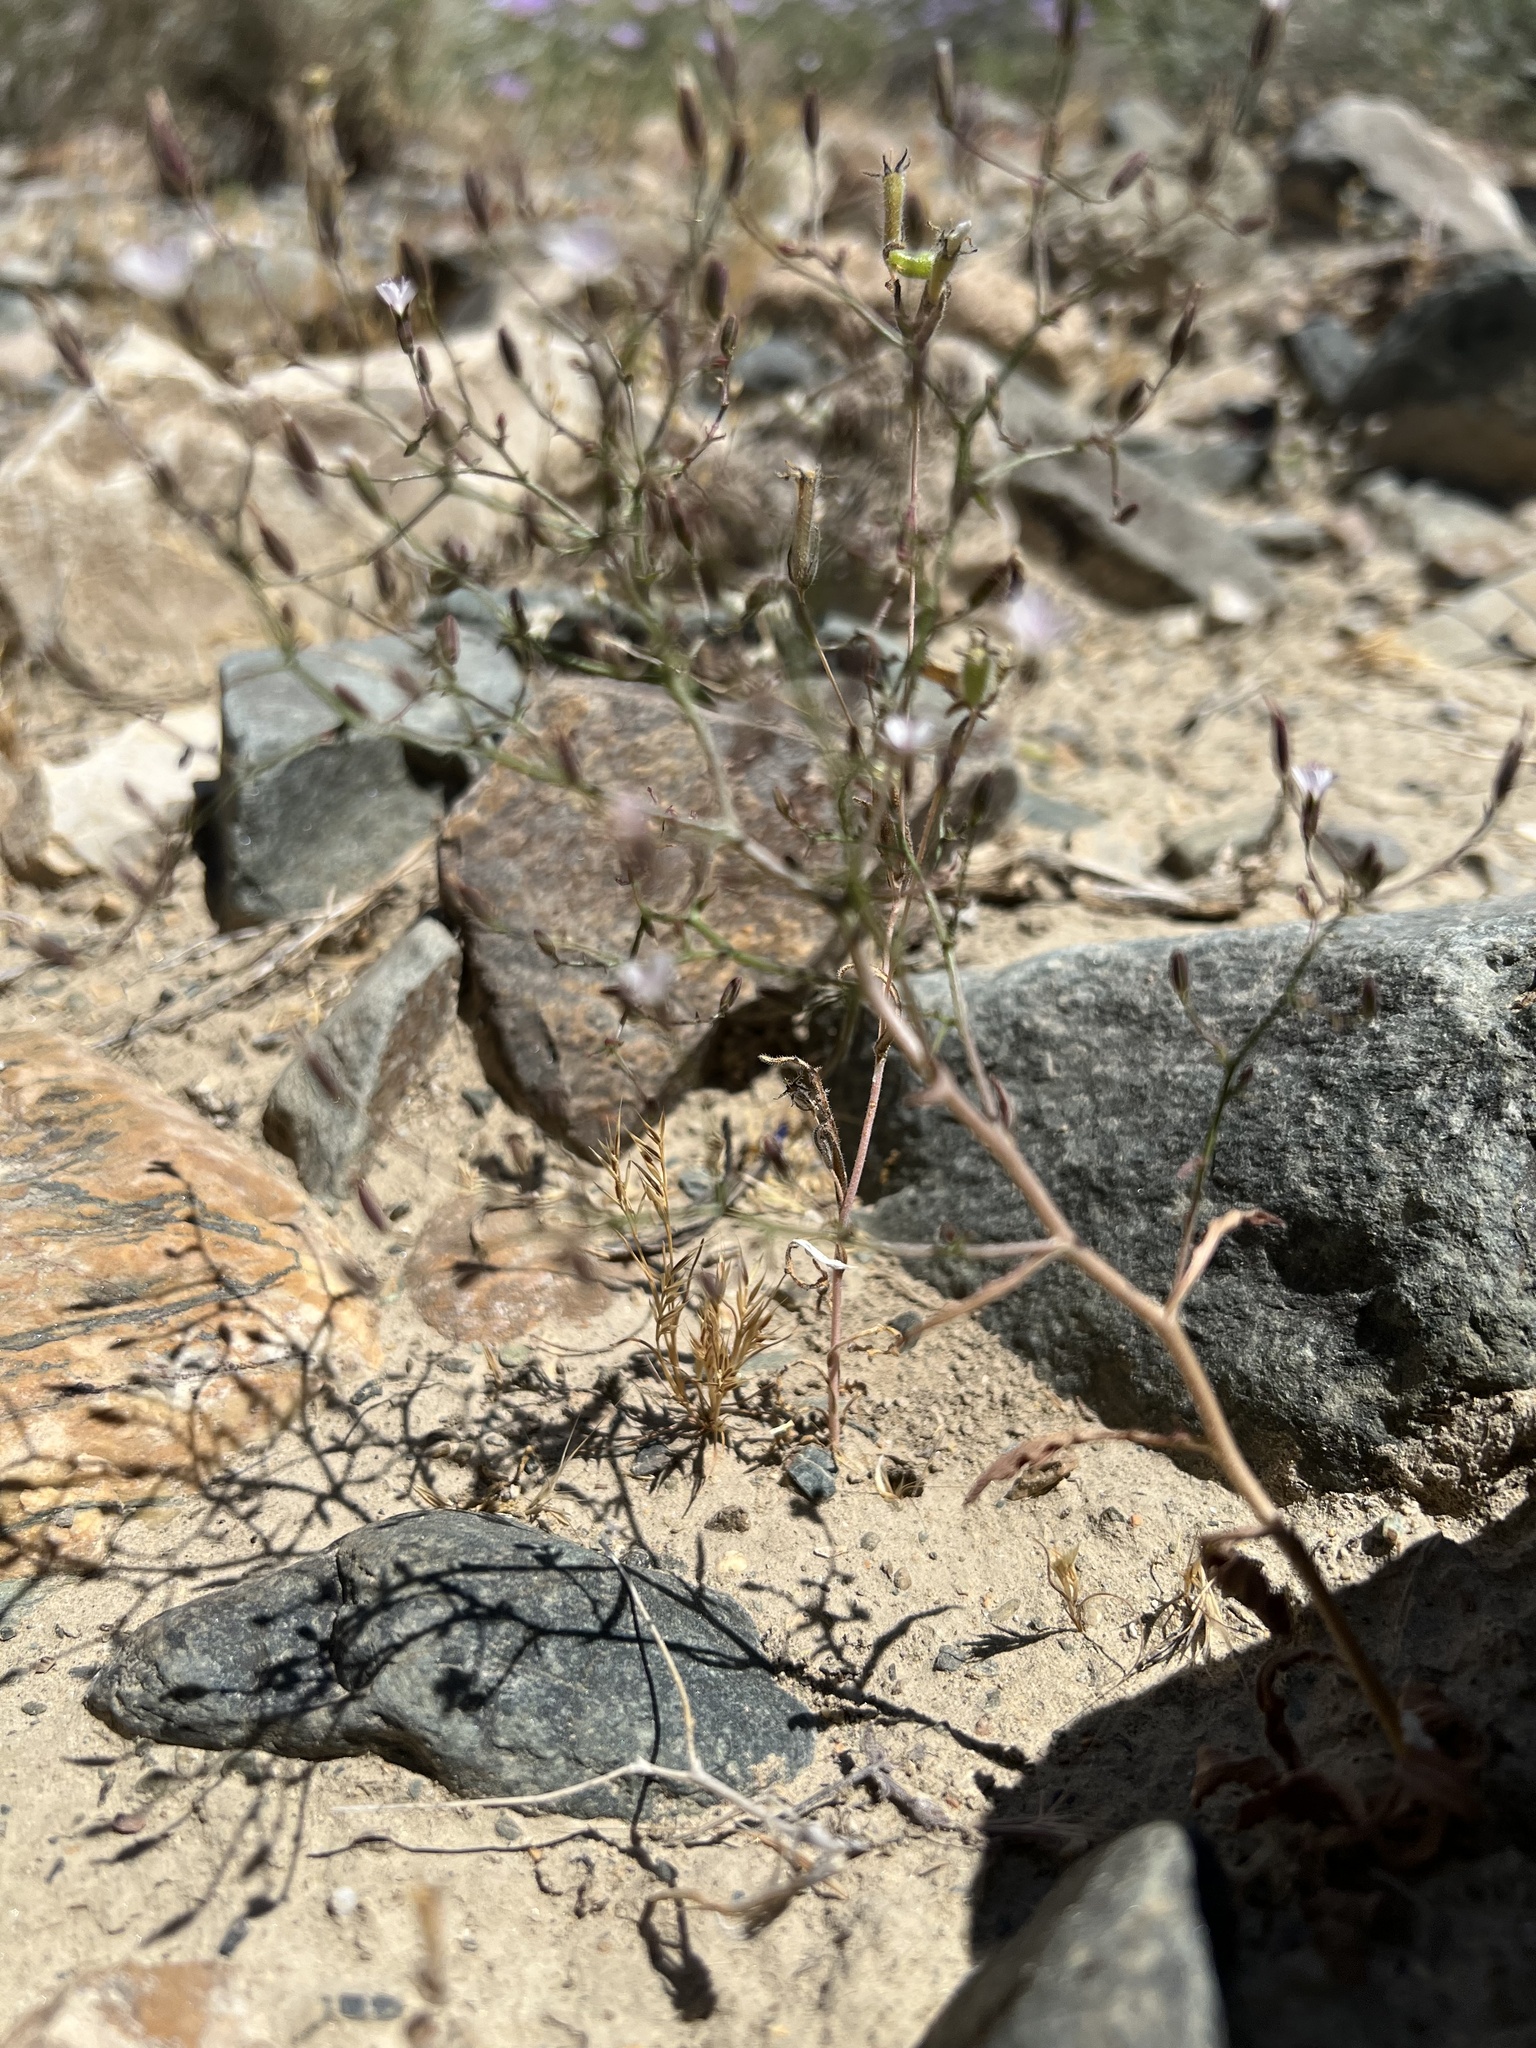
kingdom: Plantae
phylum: Tracheophyta
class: Magnoliopsida
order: Asterales
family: Asteraceae
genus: Lygodesmia
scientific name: Lygodesmia exigua
